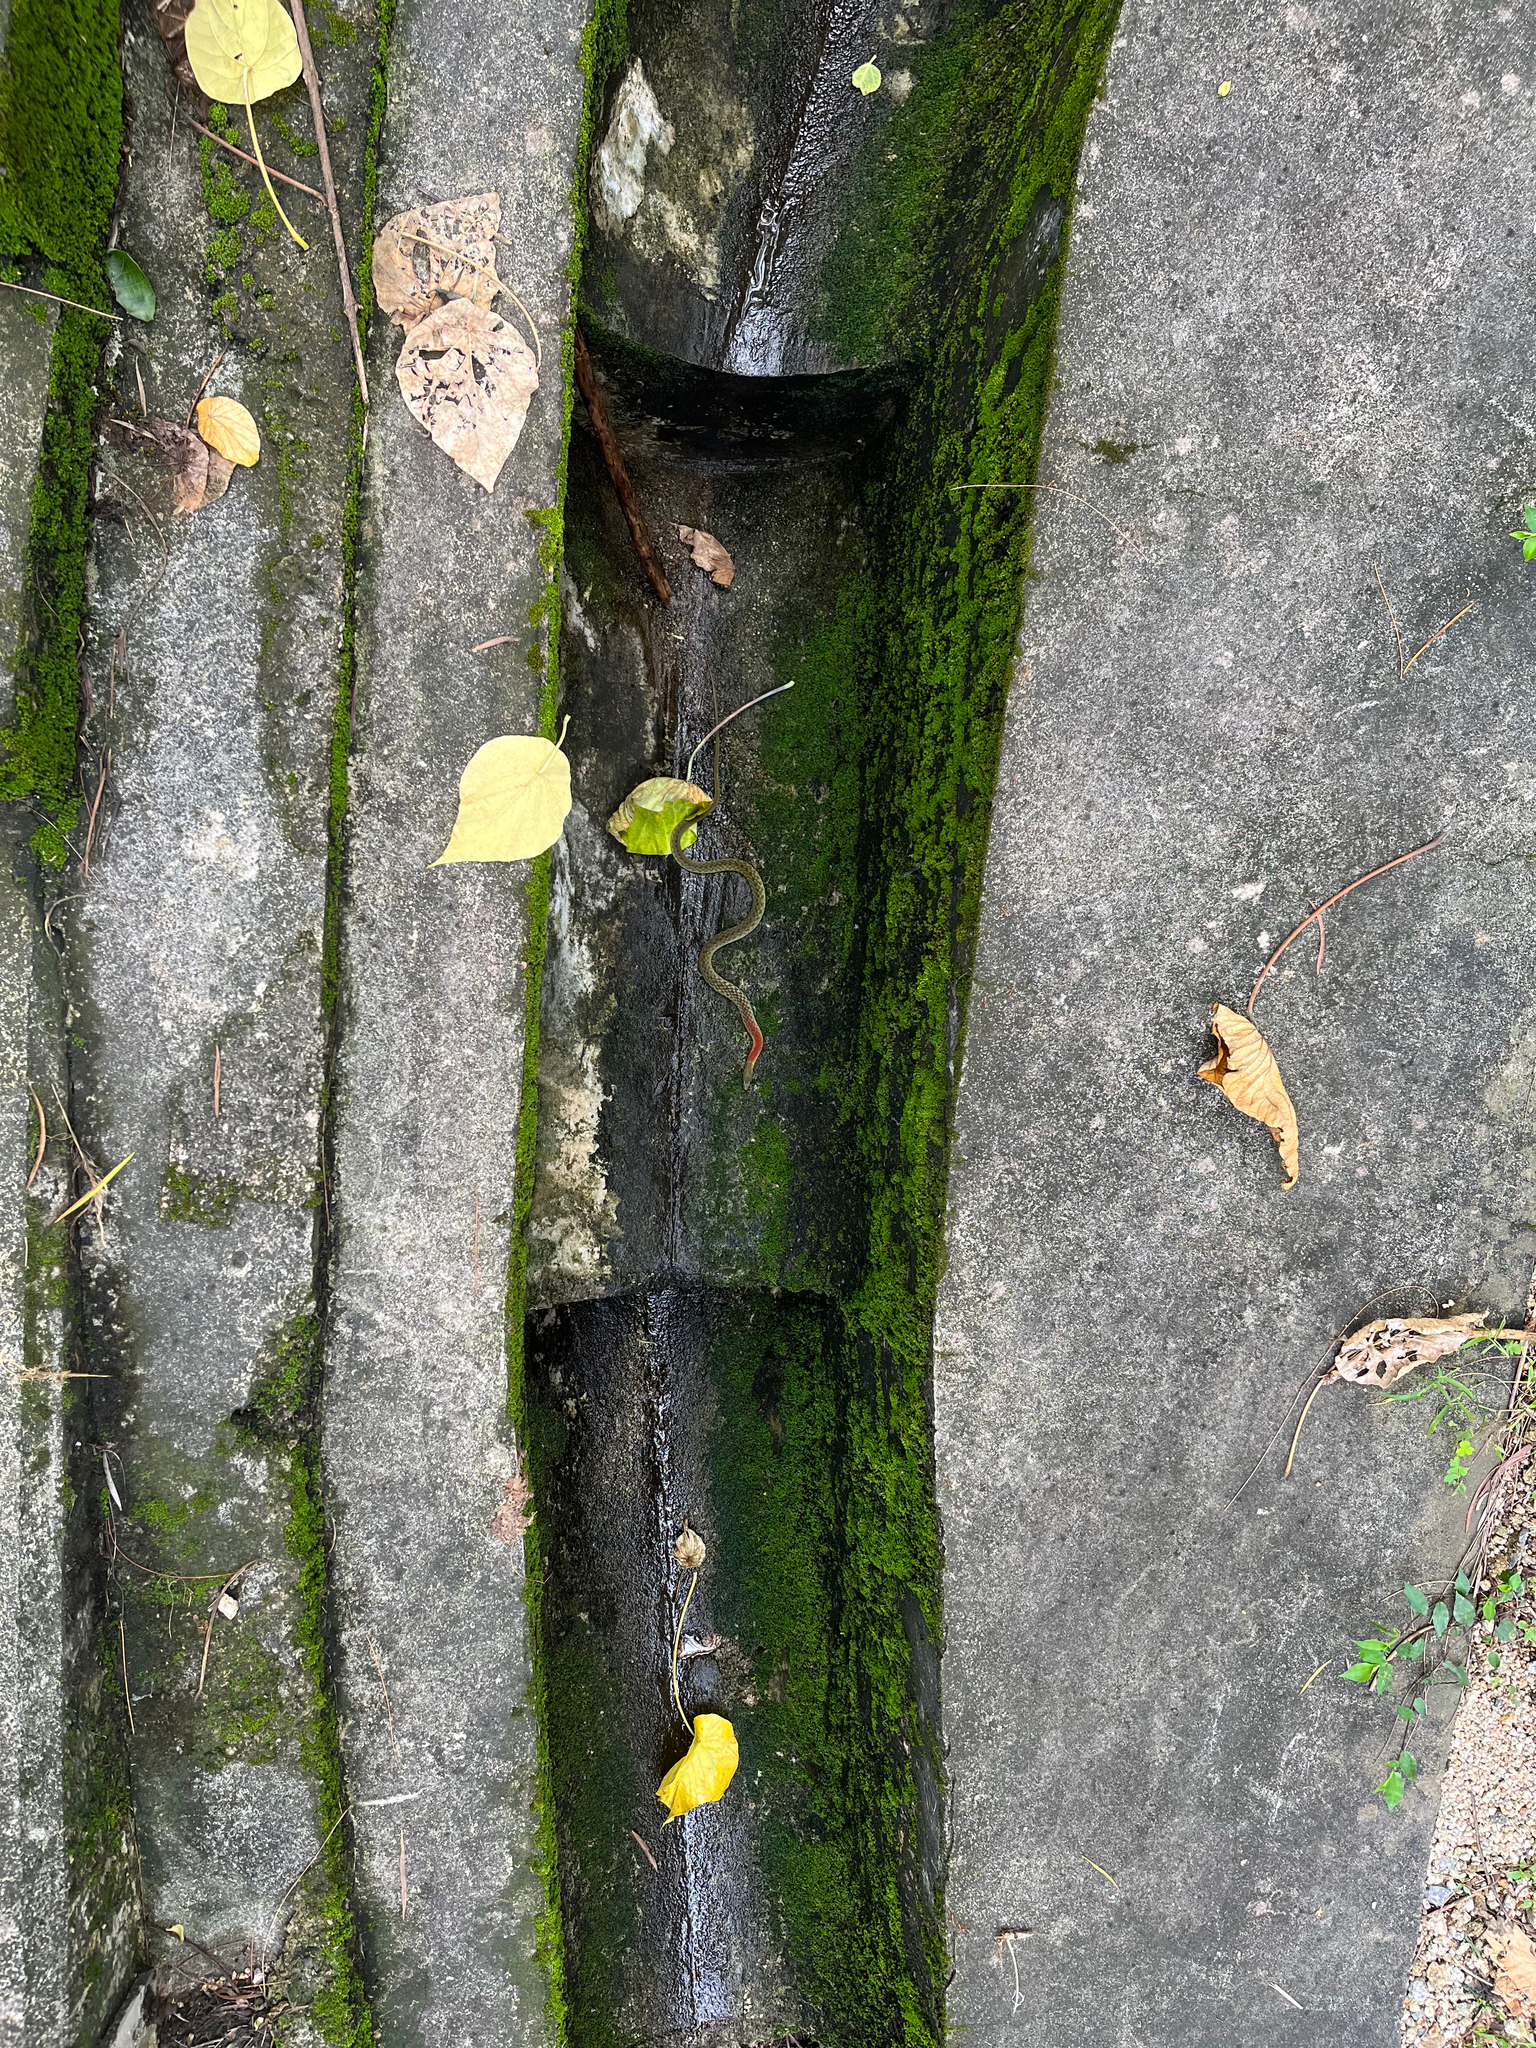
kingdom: Animalia
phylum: Chordata
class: Squamata
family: Colubridae
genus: Rhabdophis
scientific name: Rhabdophis helleri
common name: Heller’s red-necked keelback
